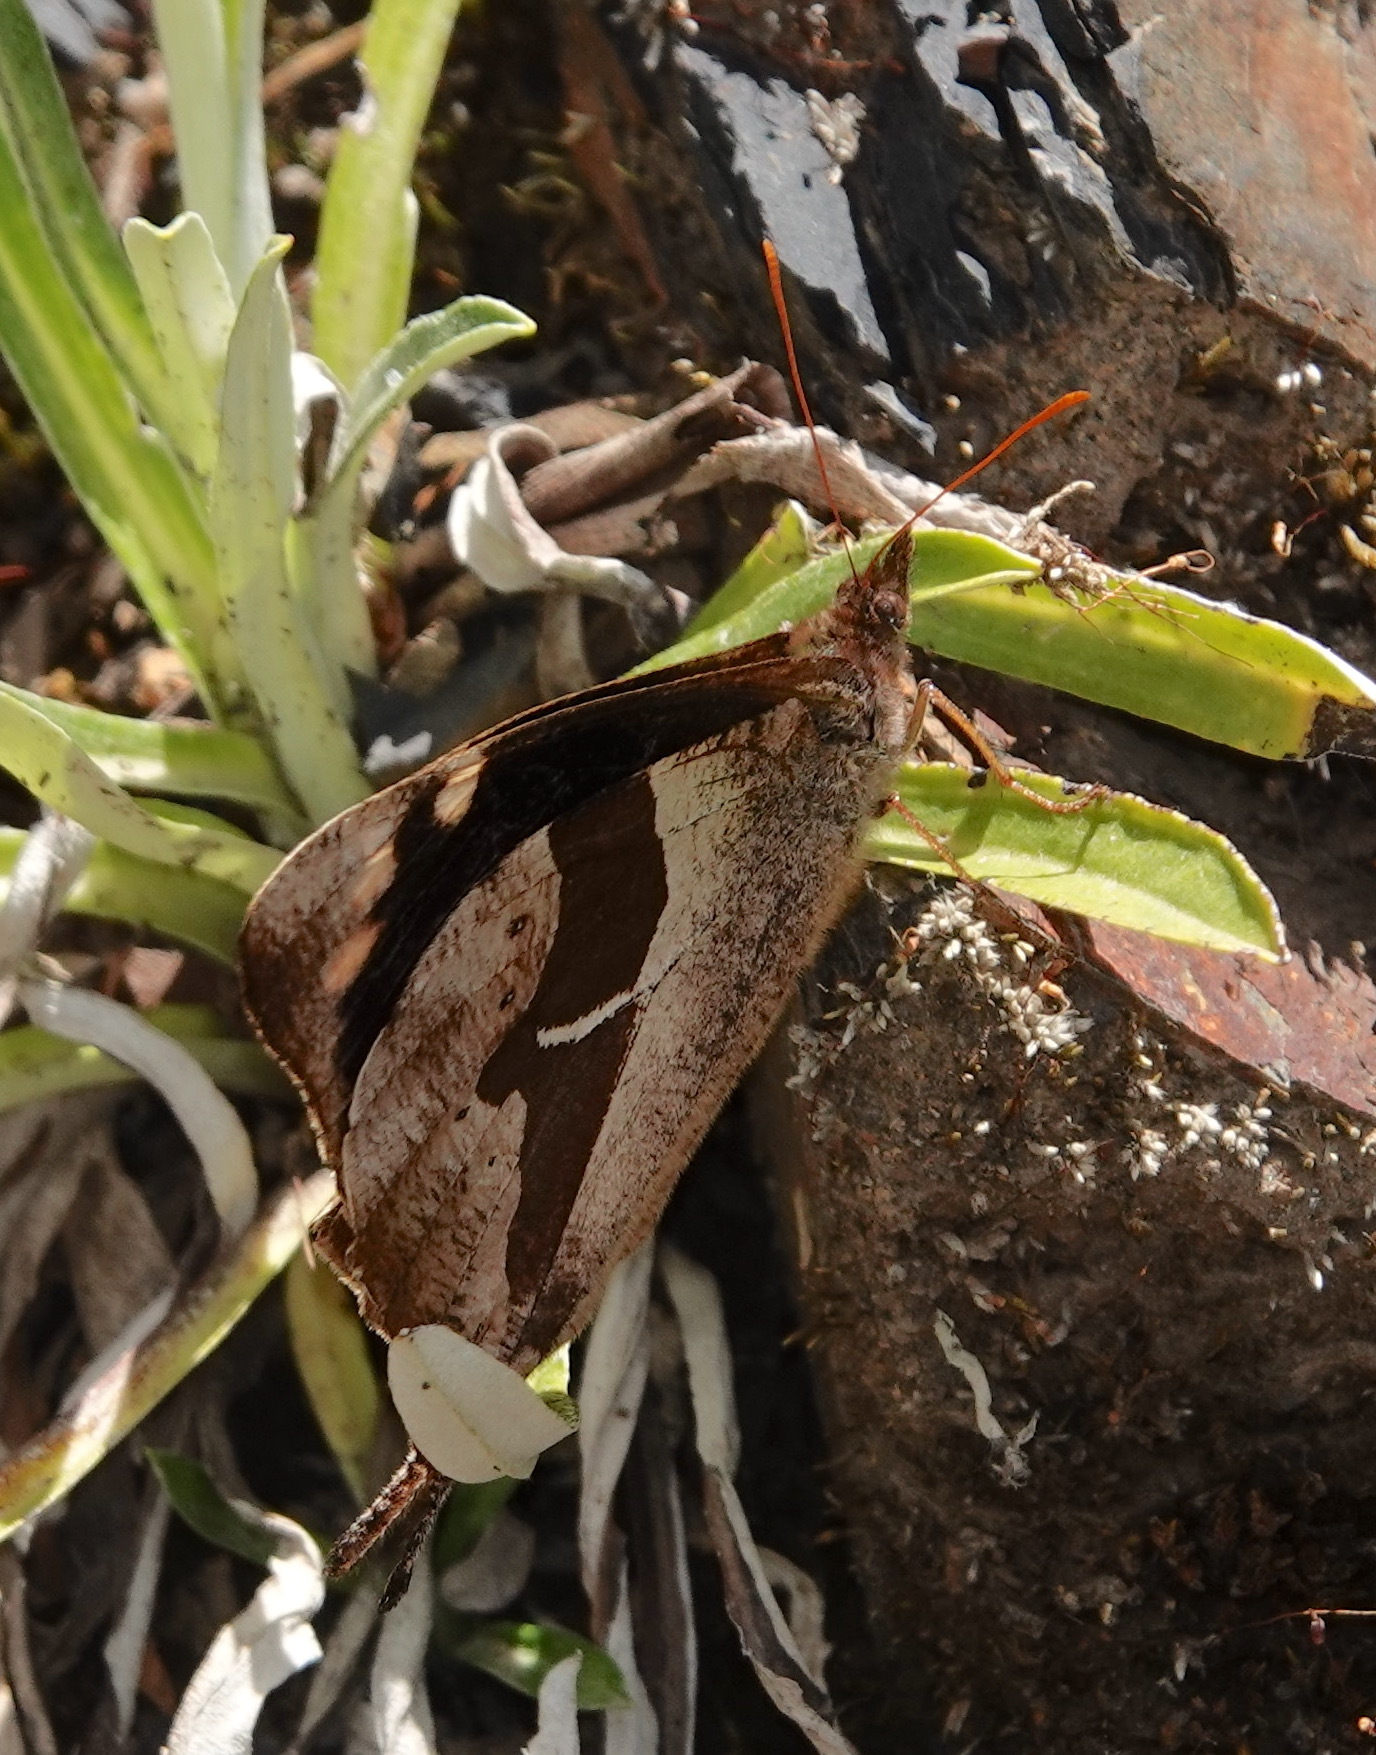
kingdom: Animalia
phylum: Arthropoda
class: Insecta
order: Lepidoptera
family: Nymphalidae
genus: Corades
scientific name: Corades cistene
